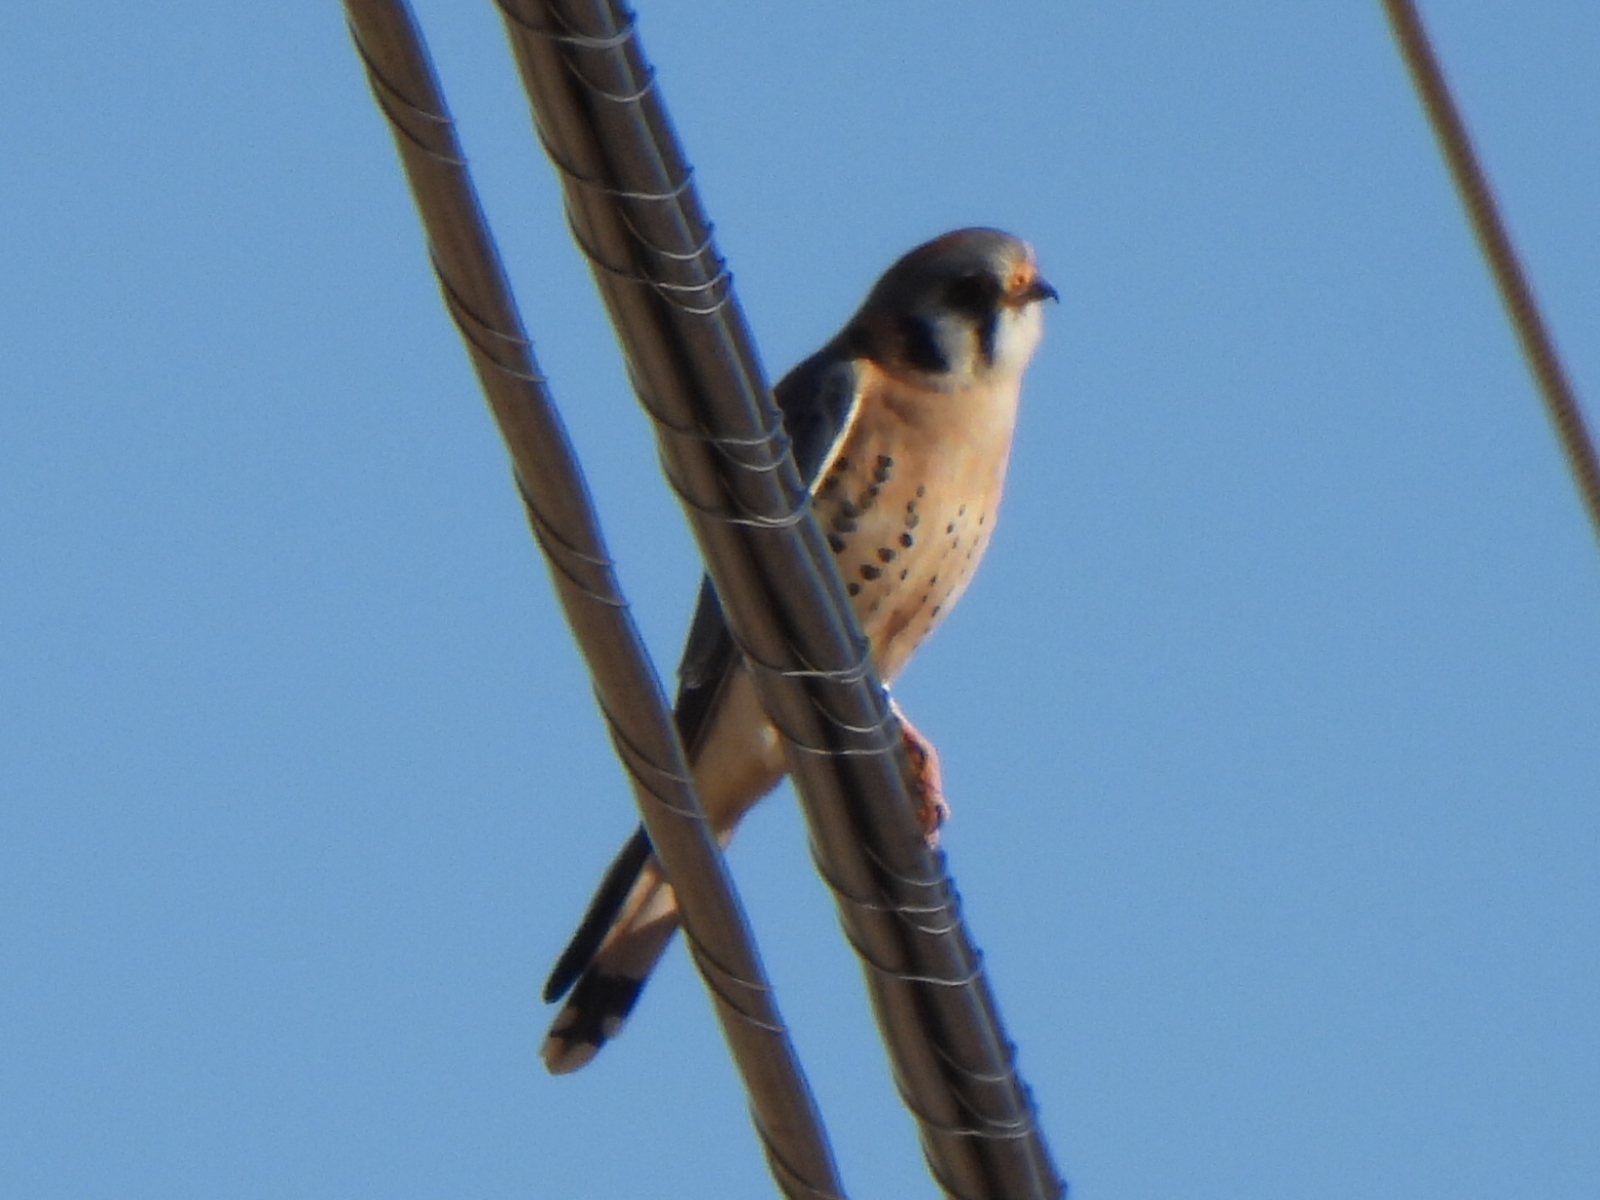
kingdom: Animalia
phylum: Chordata
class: Aves
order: Falconiformes
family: Falconidae
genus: Falco
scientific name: Falco sparverius
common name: American kestrel
